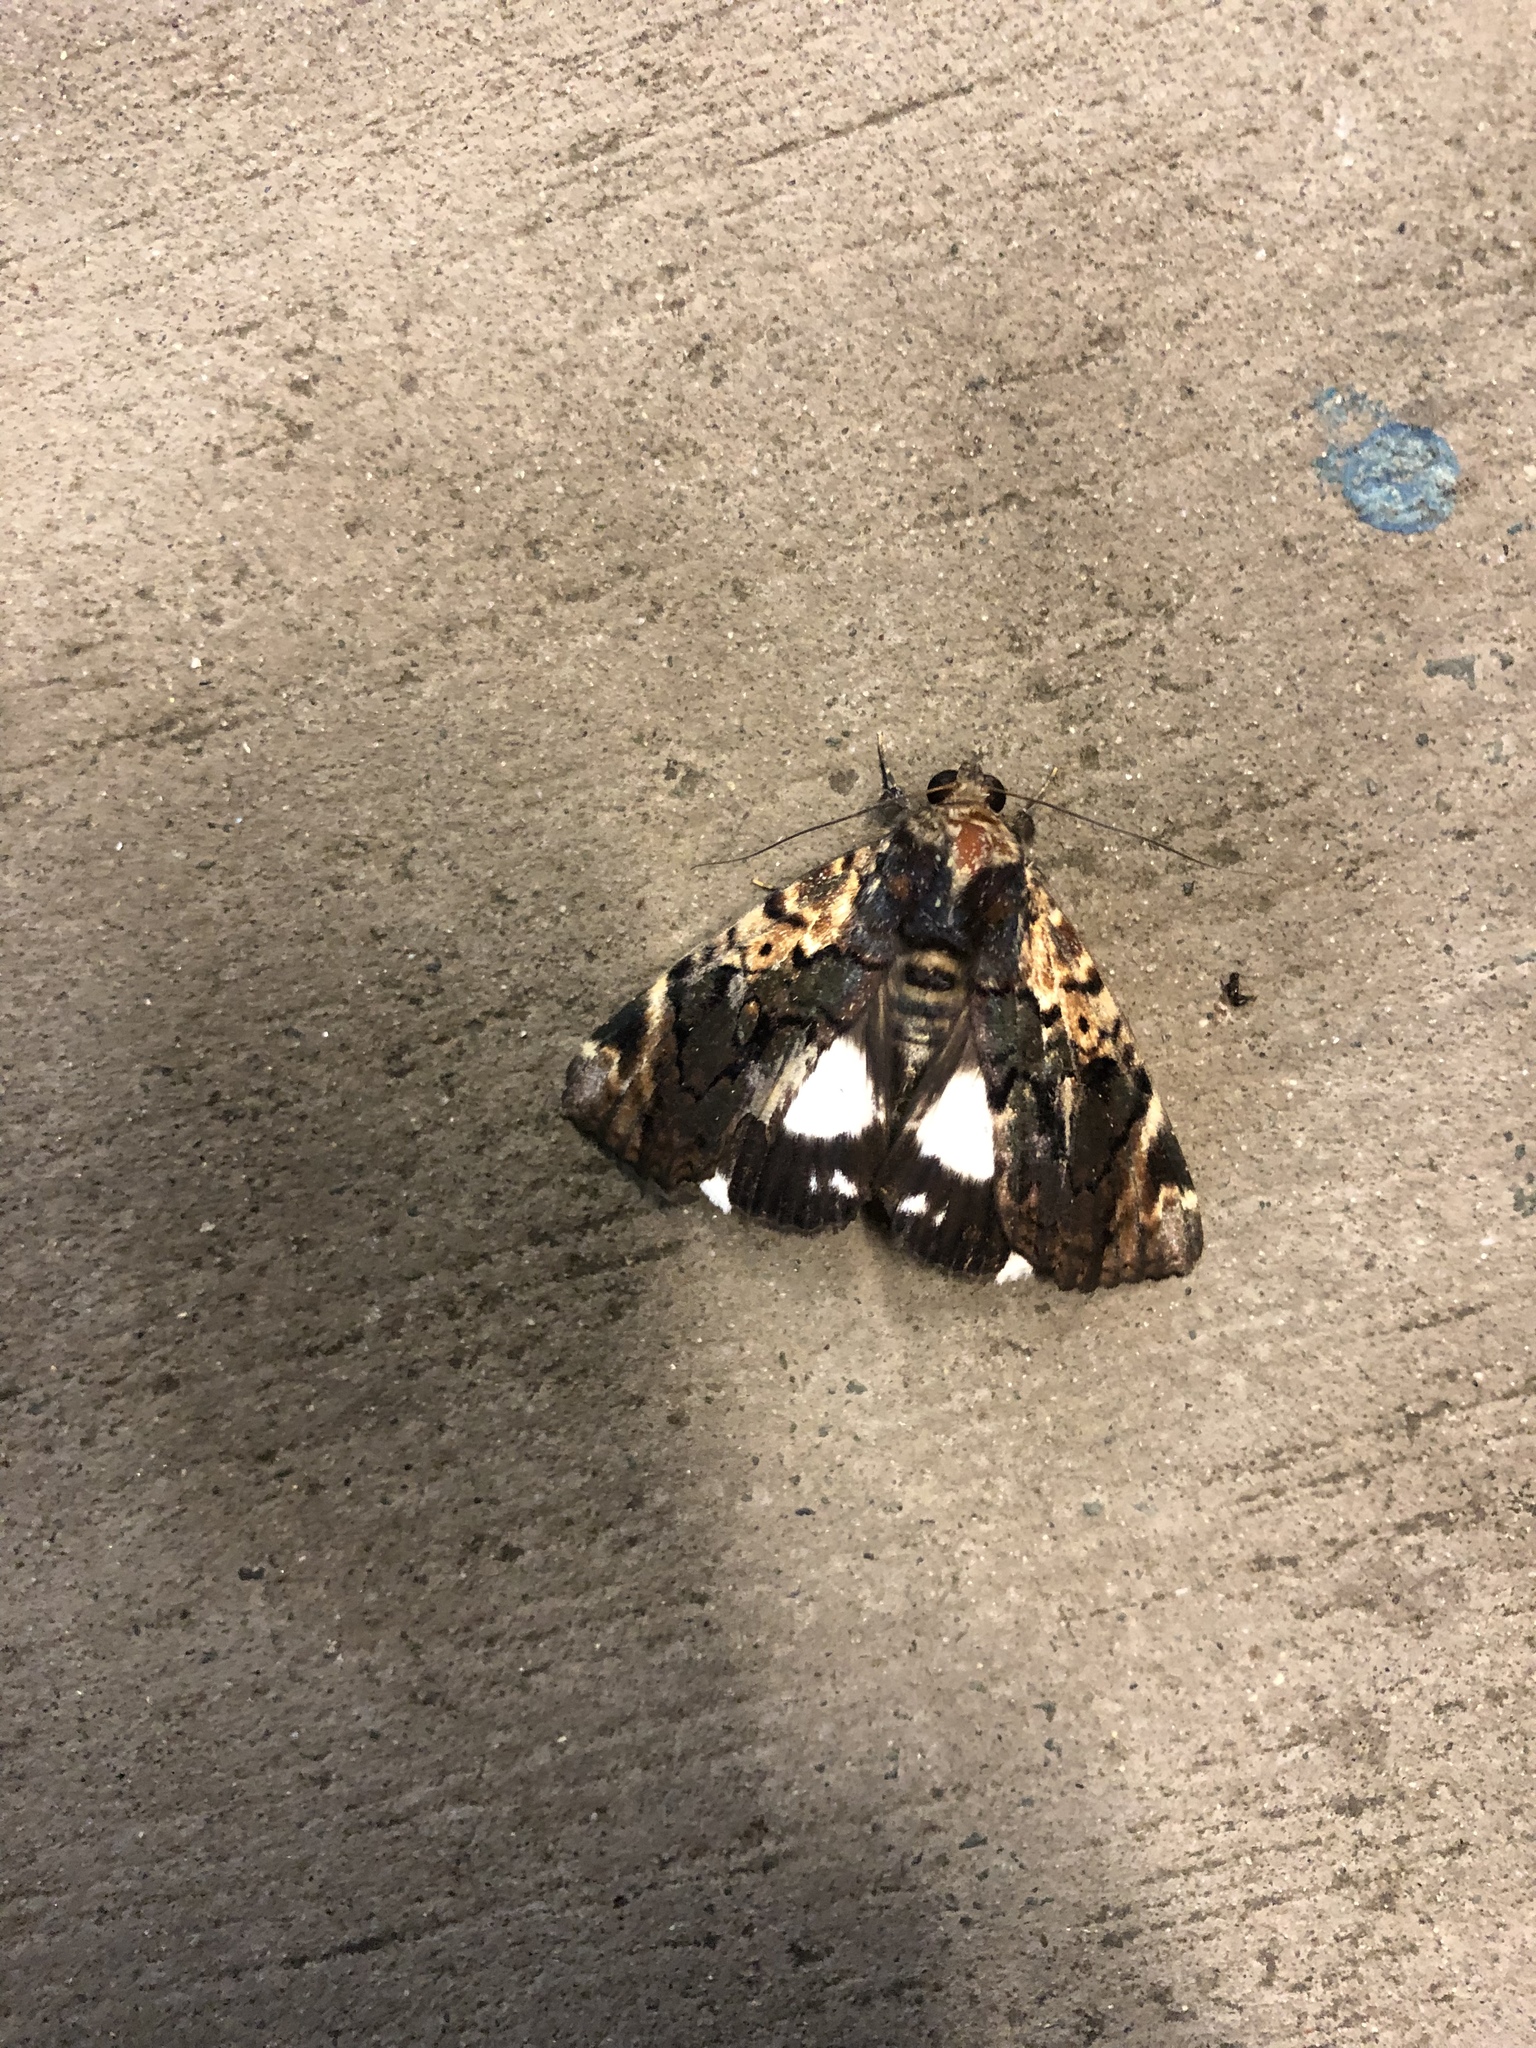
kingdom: Animalia
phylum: Arthropoda
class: Insecta
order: Lepidoptera
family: Erebidae
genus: Catephia
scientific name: Catephia linteola
